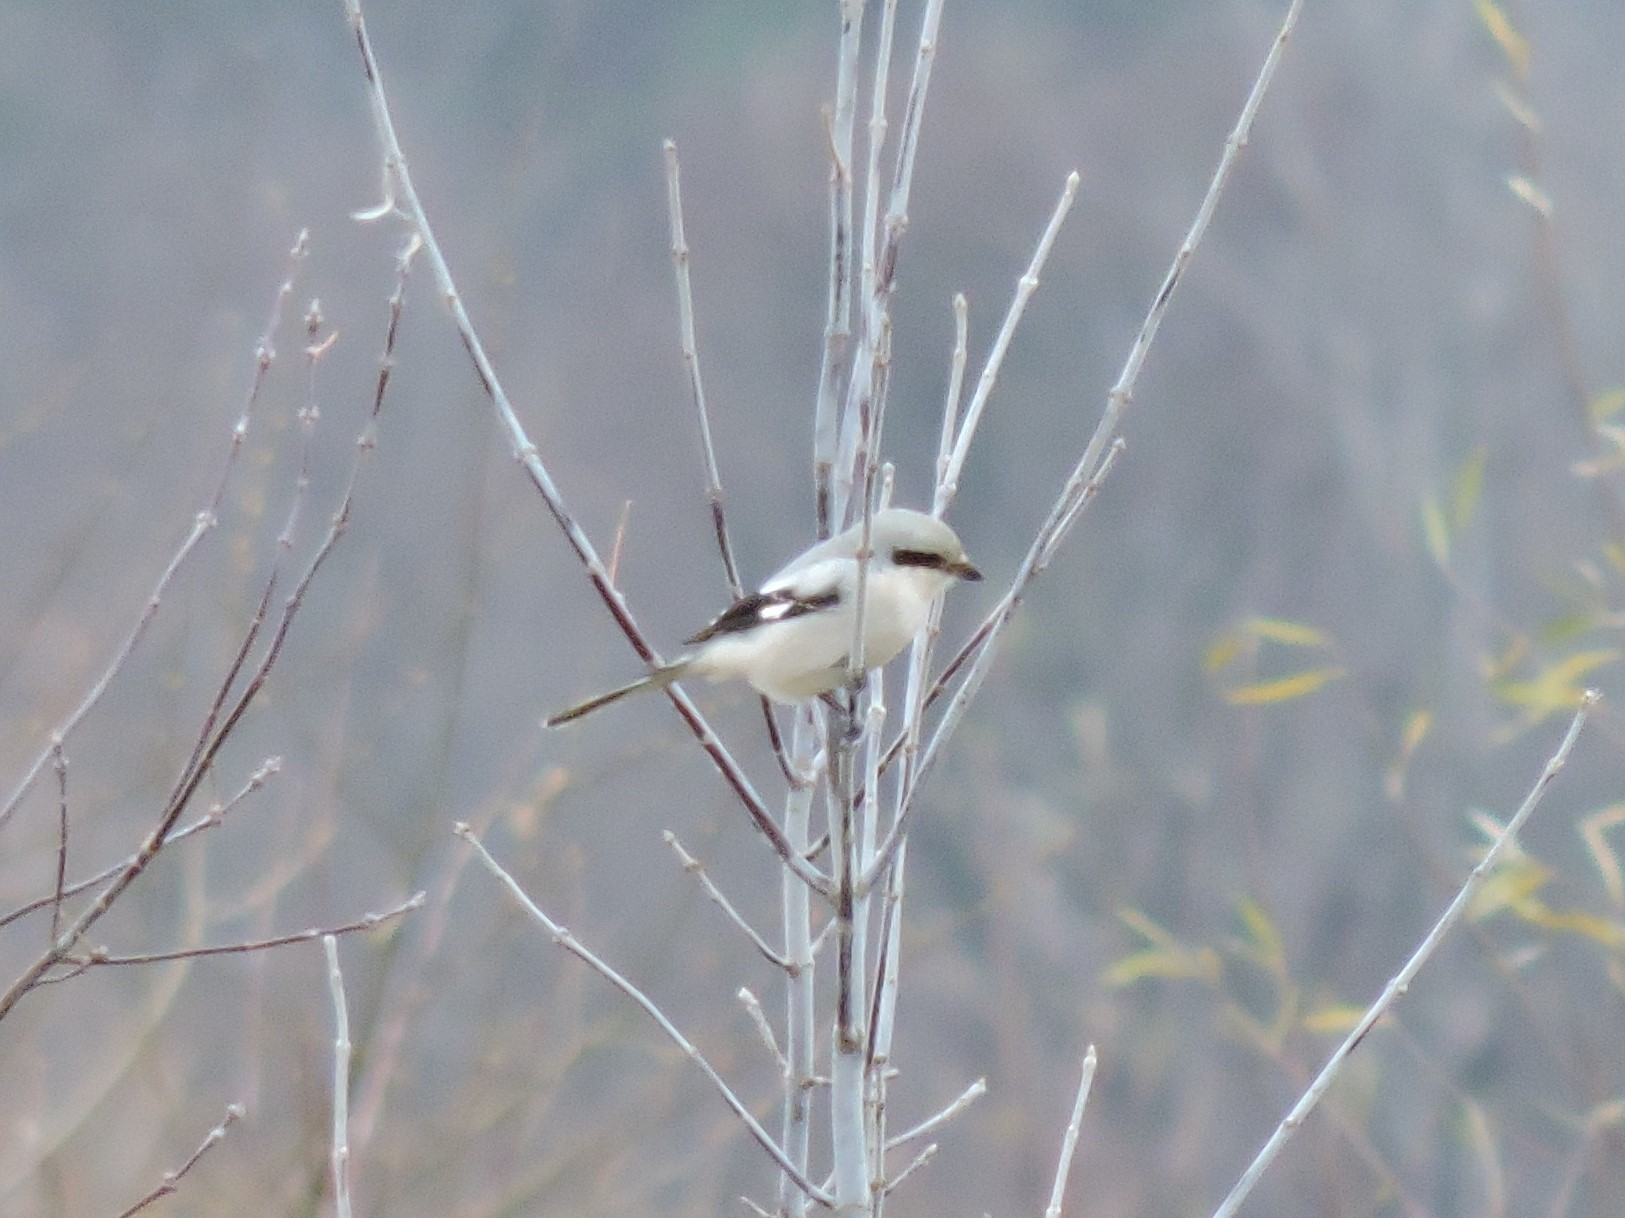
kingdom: Animalia
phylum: Chordata
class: Aves
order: Passeriformes
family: Laniidae
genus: Lanius
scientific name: Lanius excubitor
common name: Great grey shrike
